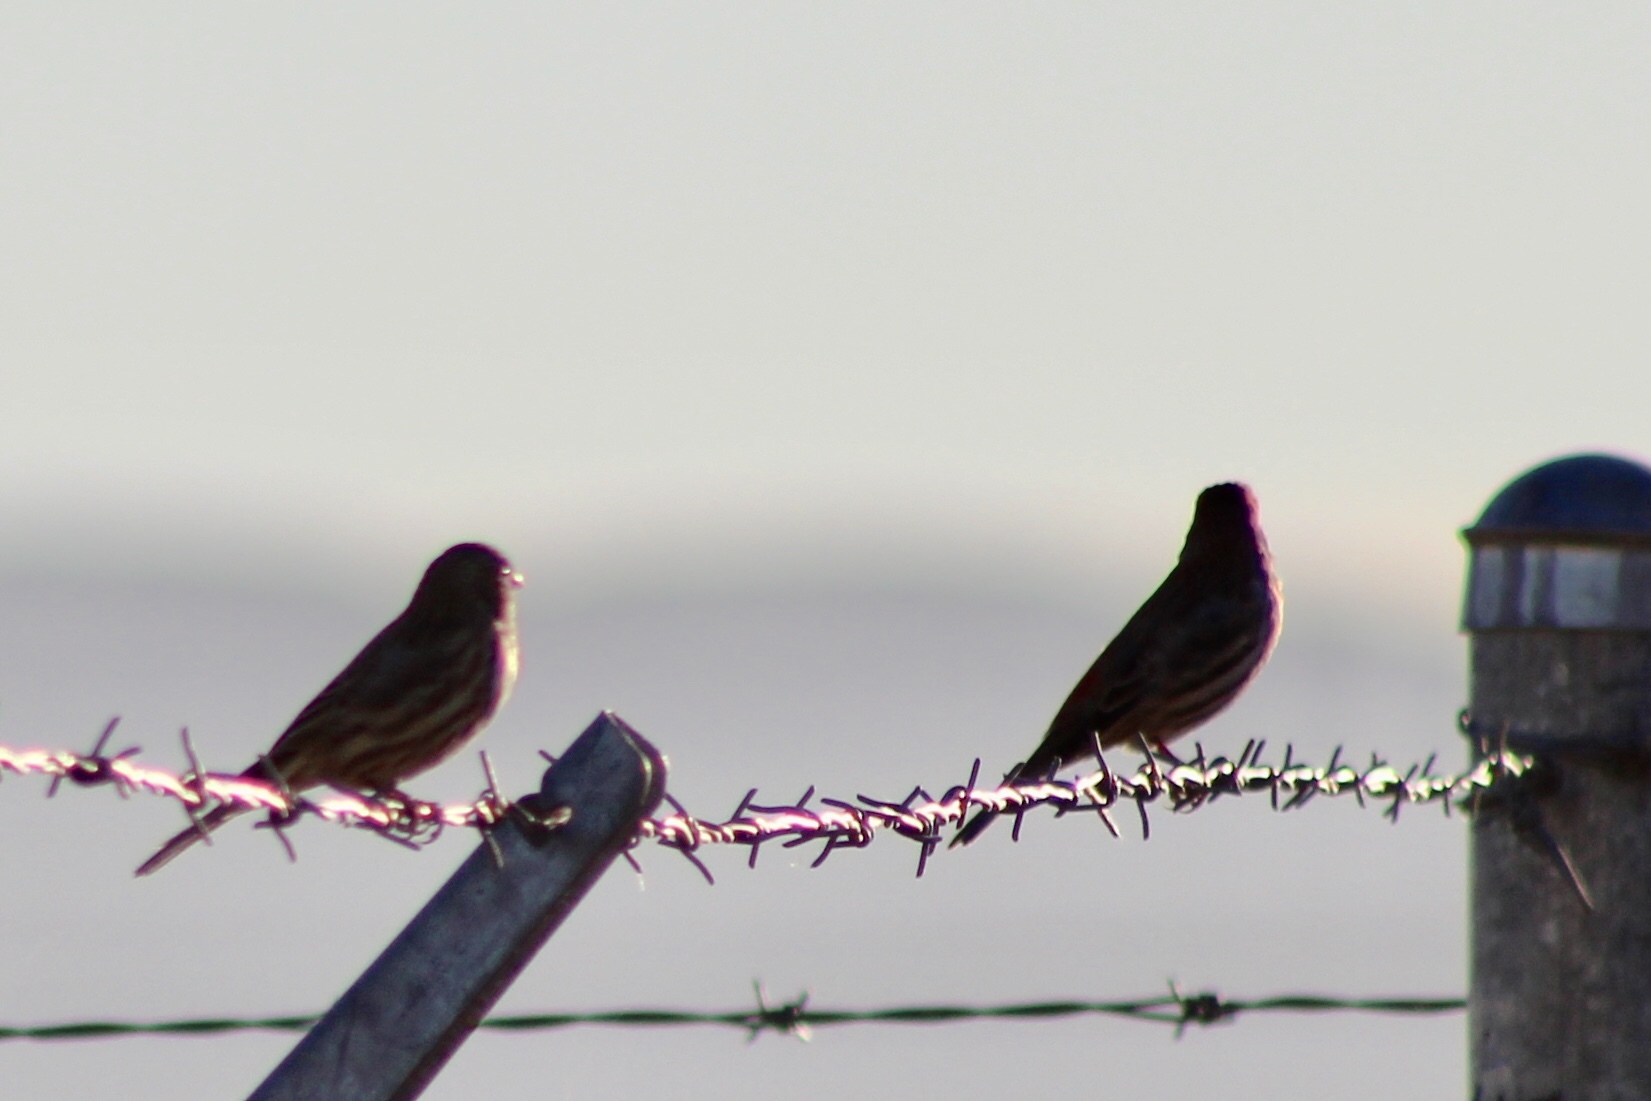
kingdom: Animalia
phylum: Chordata
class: Aves
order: Passeriformes
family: Fringillidae
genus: Haemorhous
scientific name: Haemorhous mexicanus
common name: House finch
